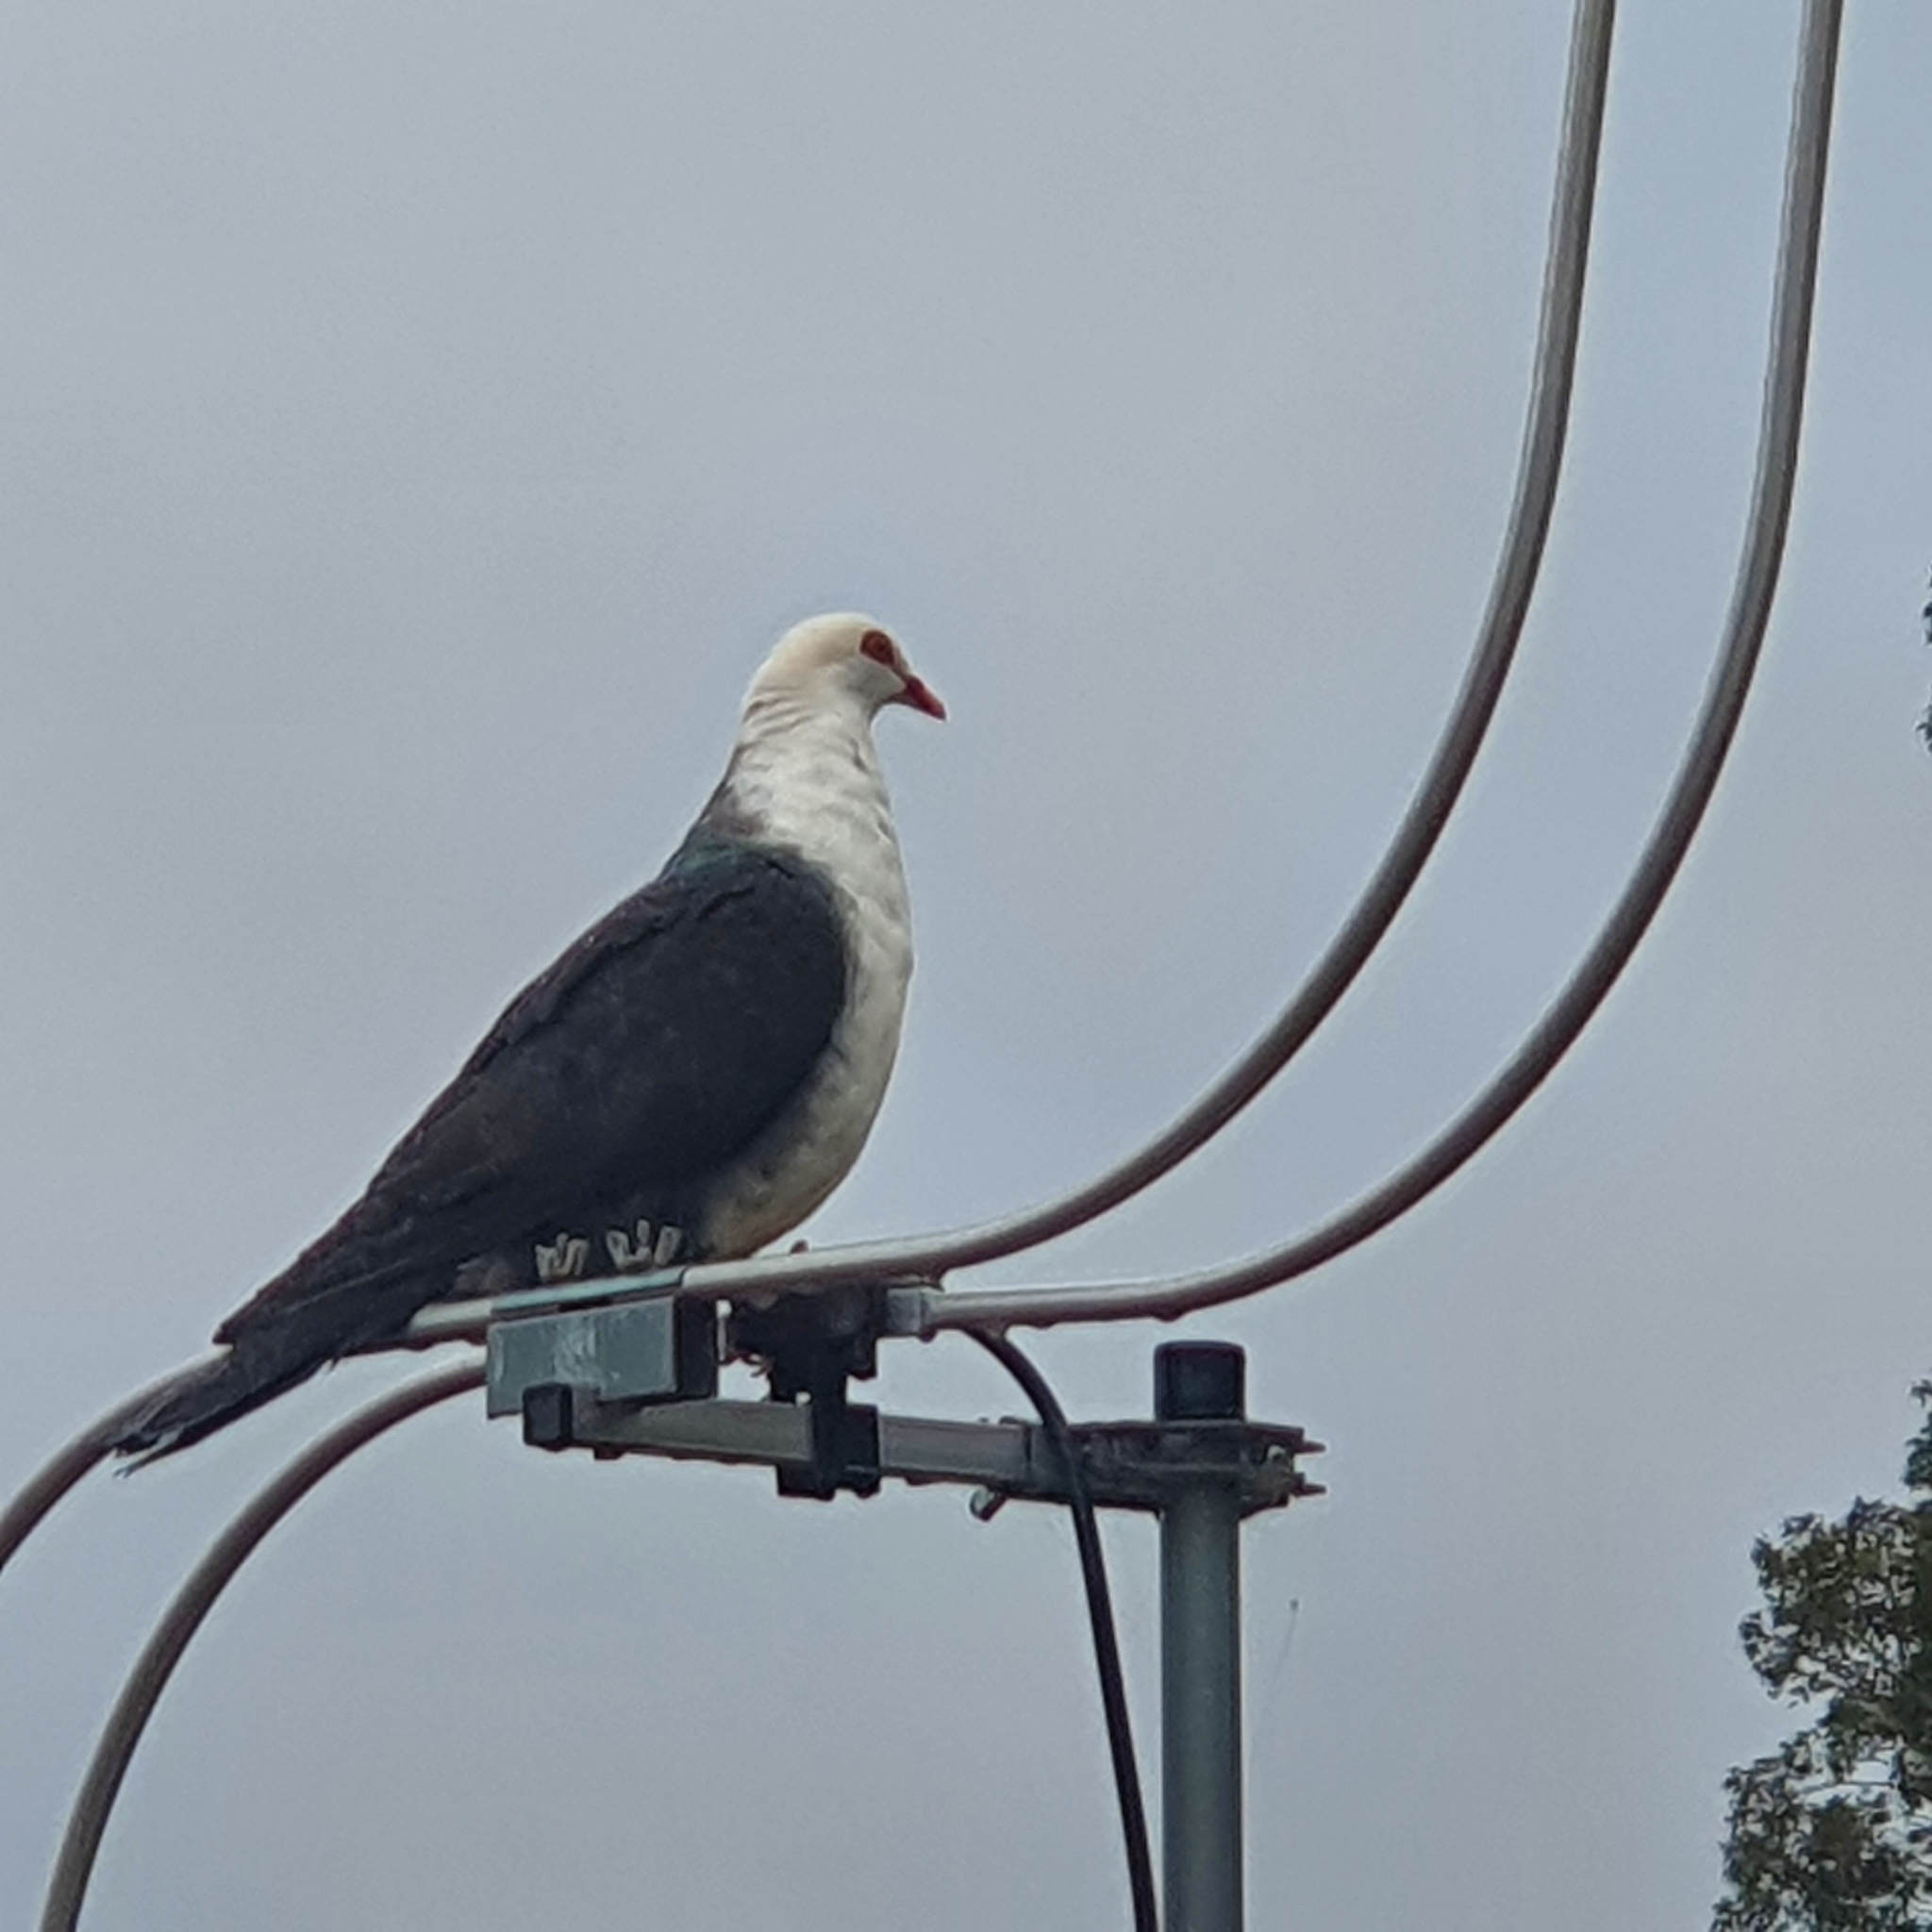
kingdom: Animalia
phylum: Chordata
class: Aves
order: Columbiformes
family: Columbidae
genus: Columba
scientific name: Columba leucomela
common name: White-headed pigeon
